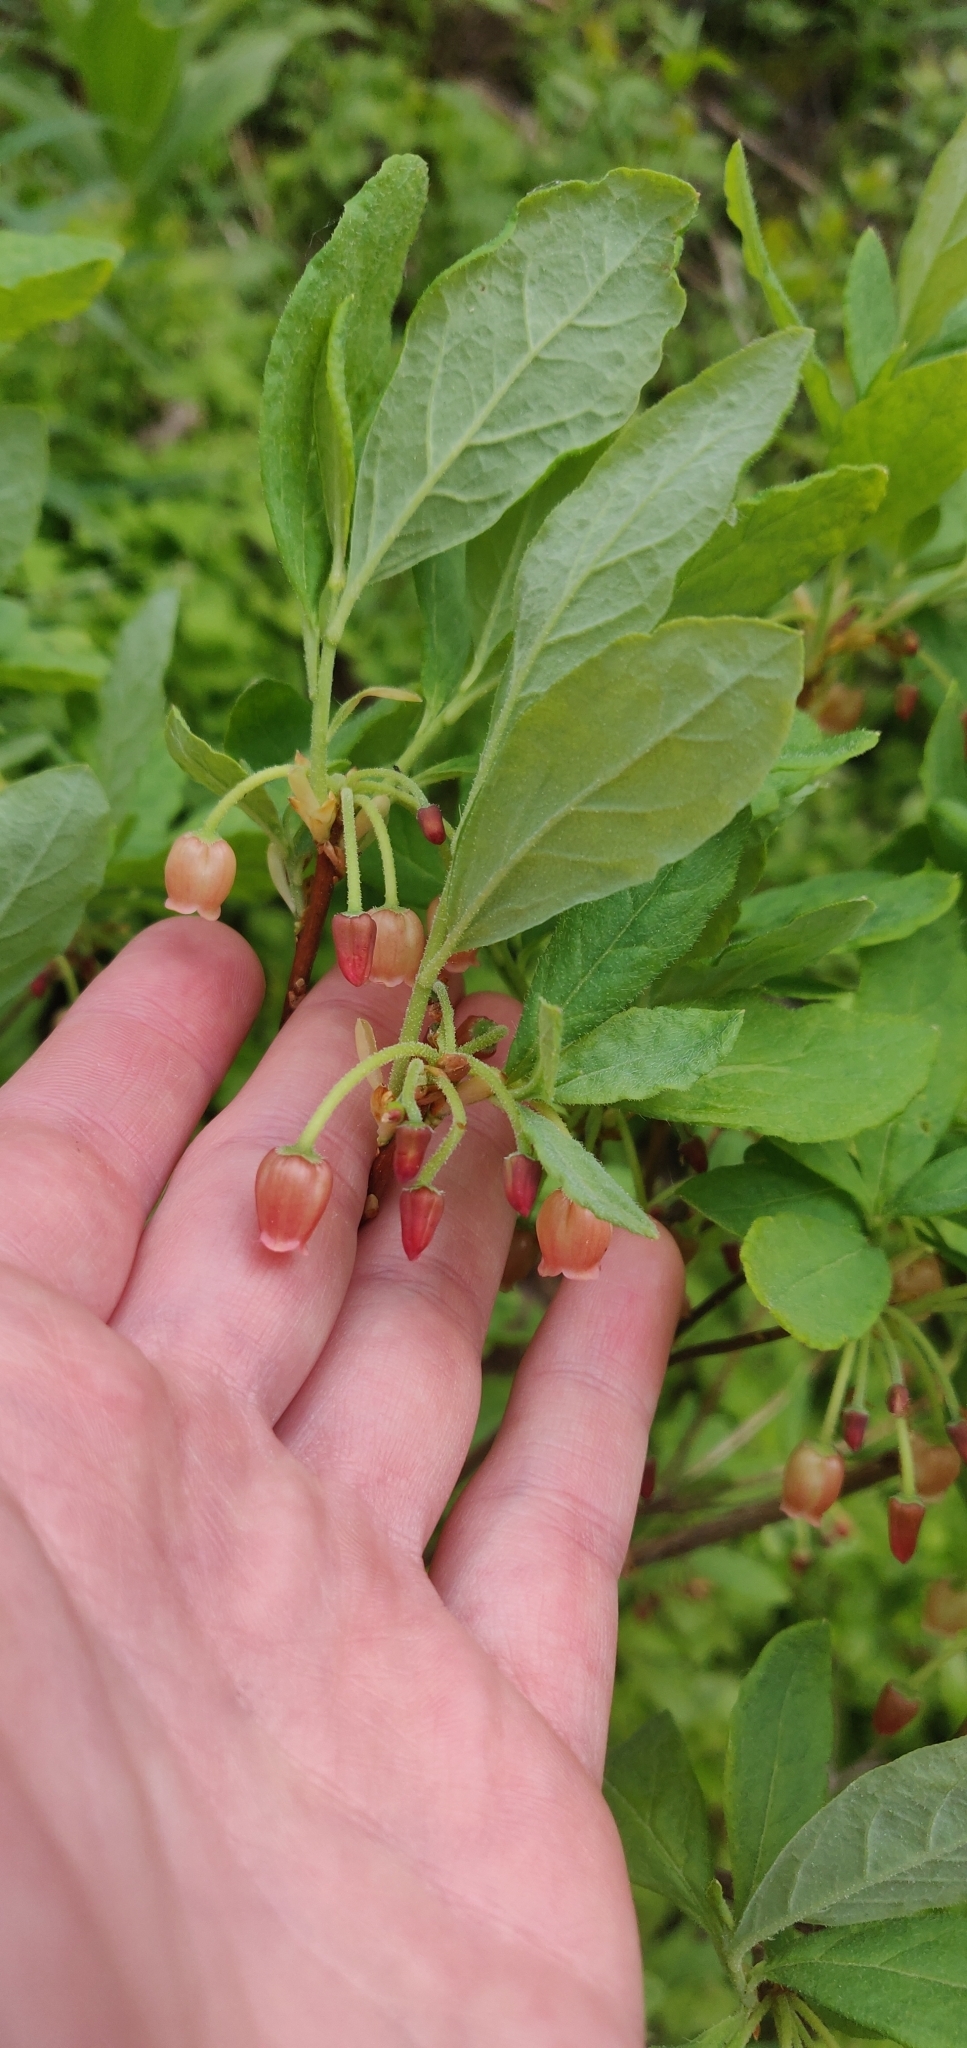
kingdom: Plantae
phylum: Tracheophyta
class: Magnoliopsida
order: Ericales
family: Ericaceae
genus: Rhododendron
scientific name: Rhododendron menziesii
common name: Pacific menziesia
